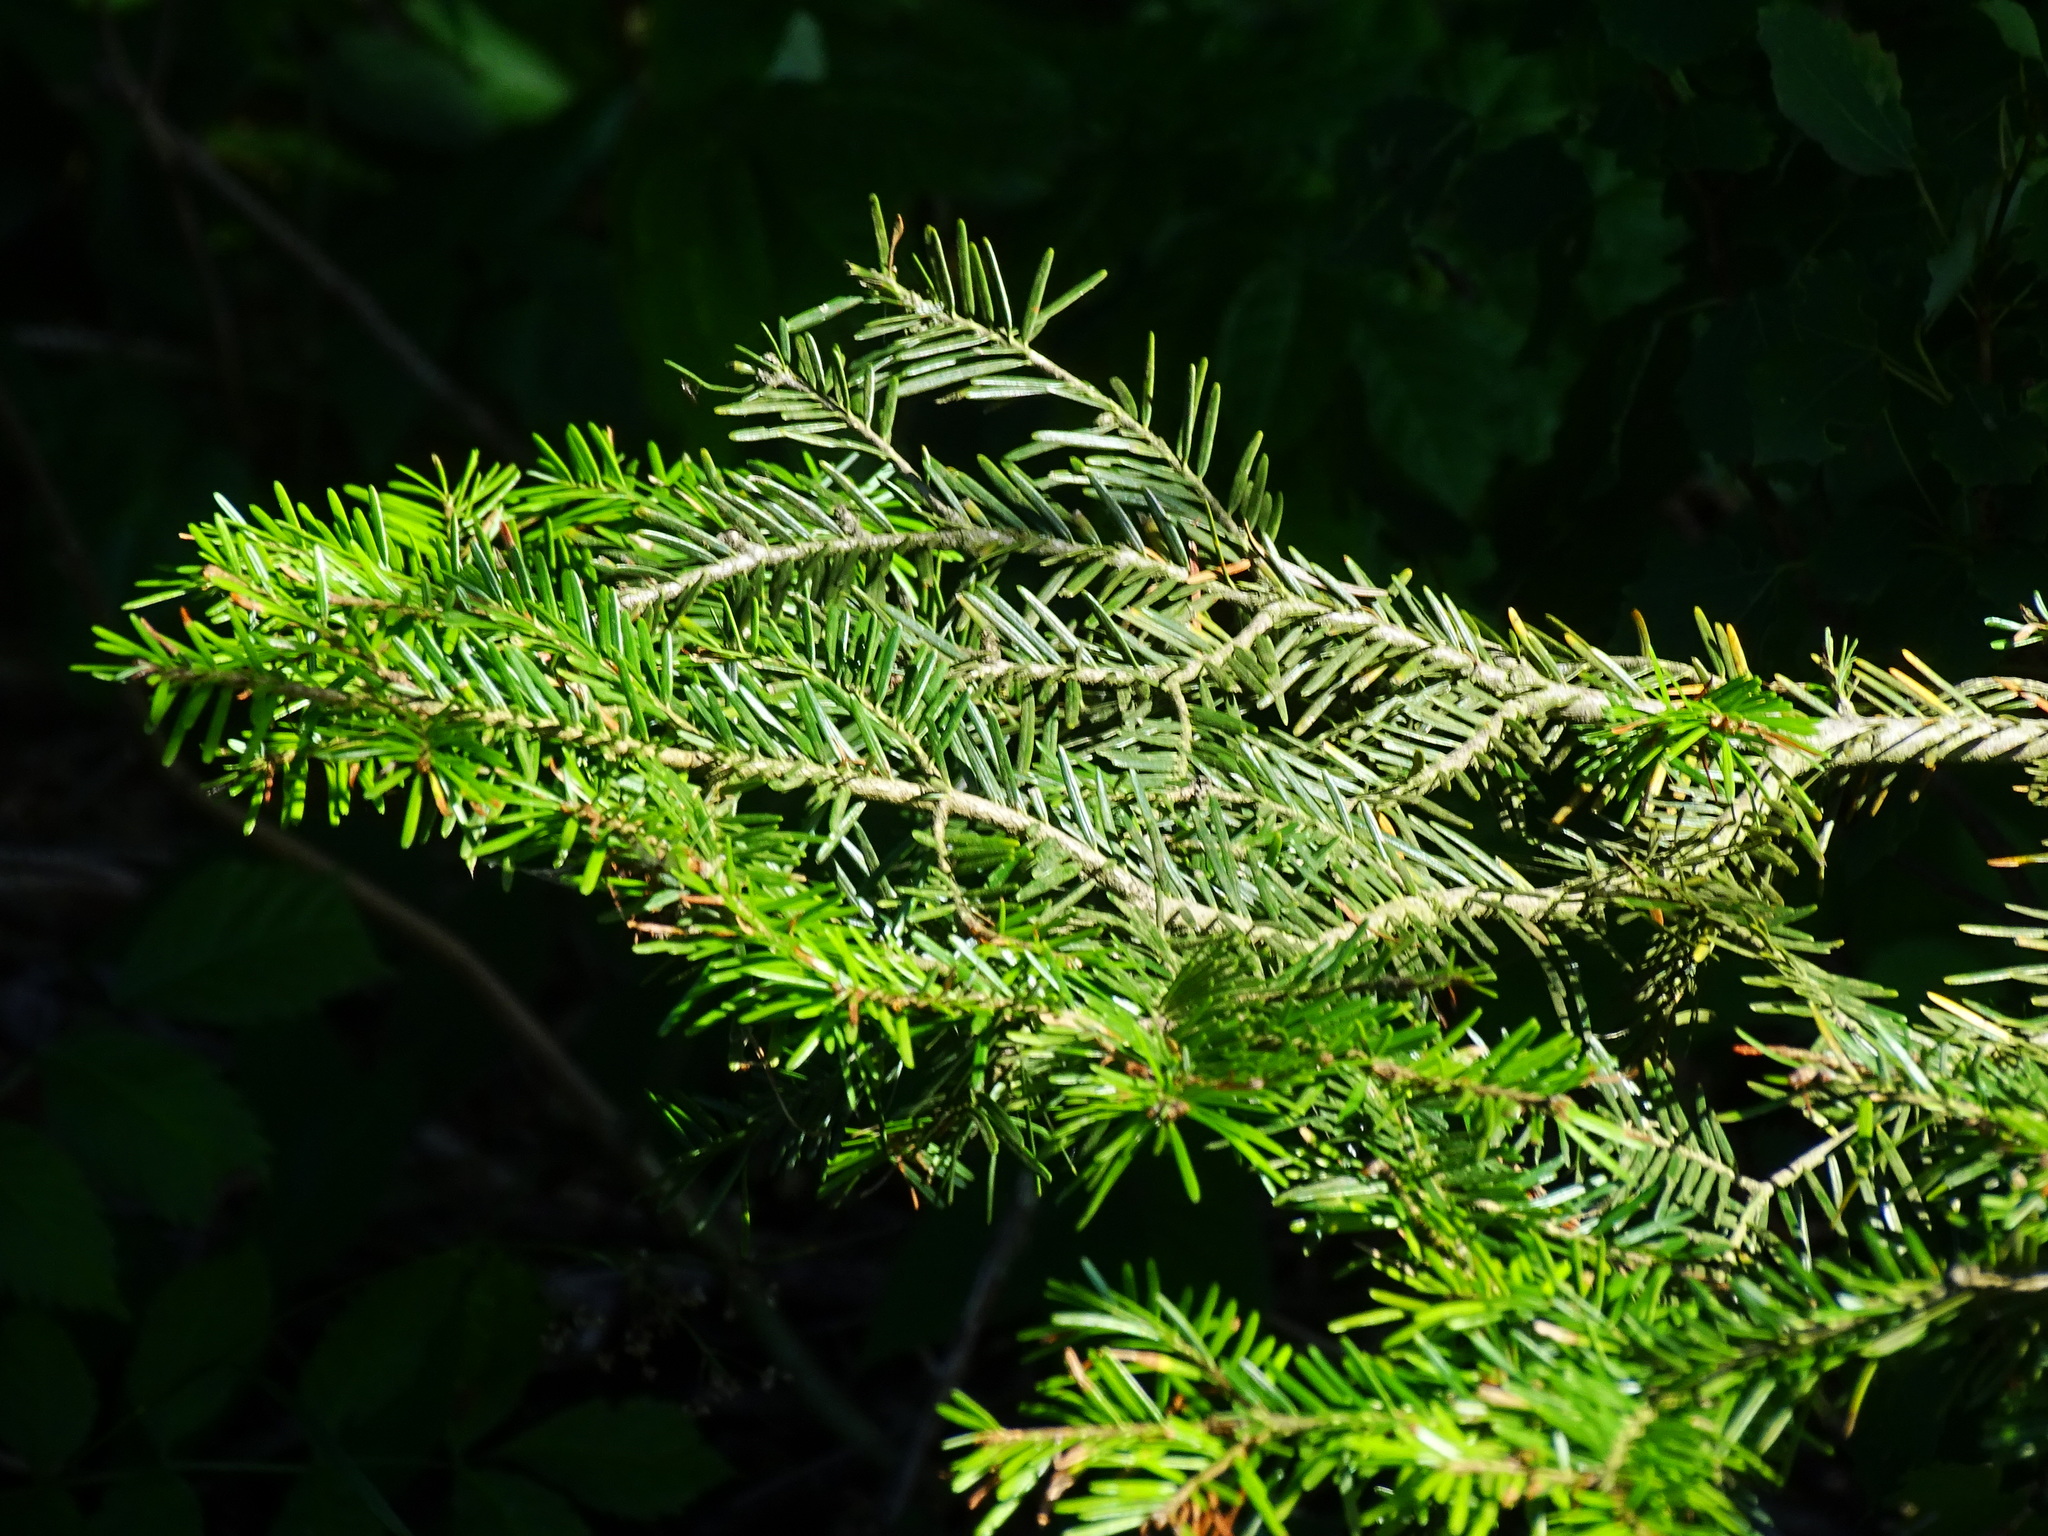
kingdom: Plantae
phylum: Tracheophyta
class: Pinopsida
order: Pinales
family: Pinaceae
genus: Abies
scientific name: Abies alba
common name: Silver fir
